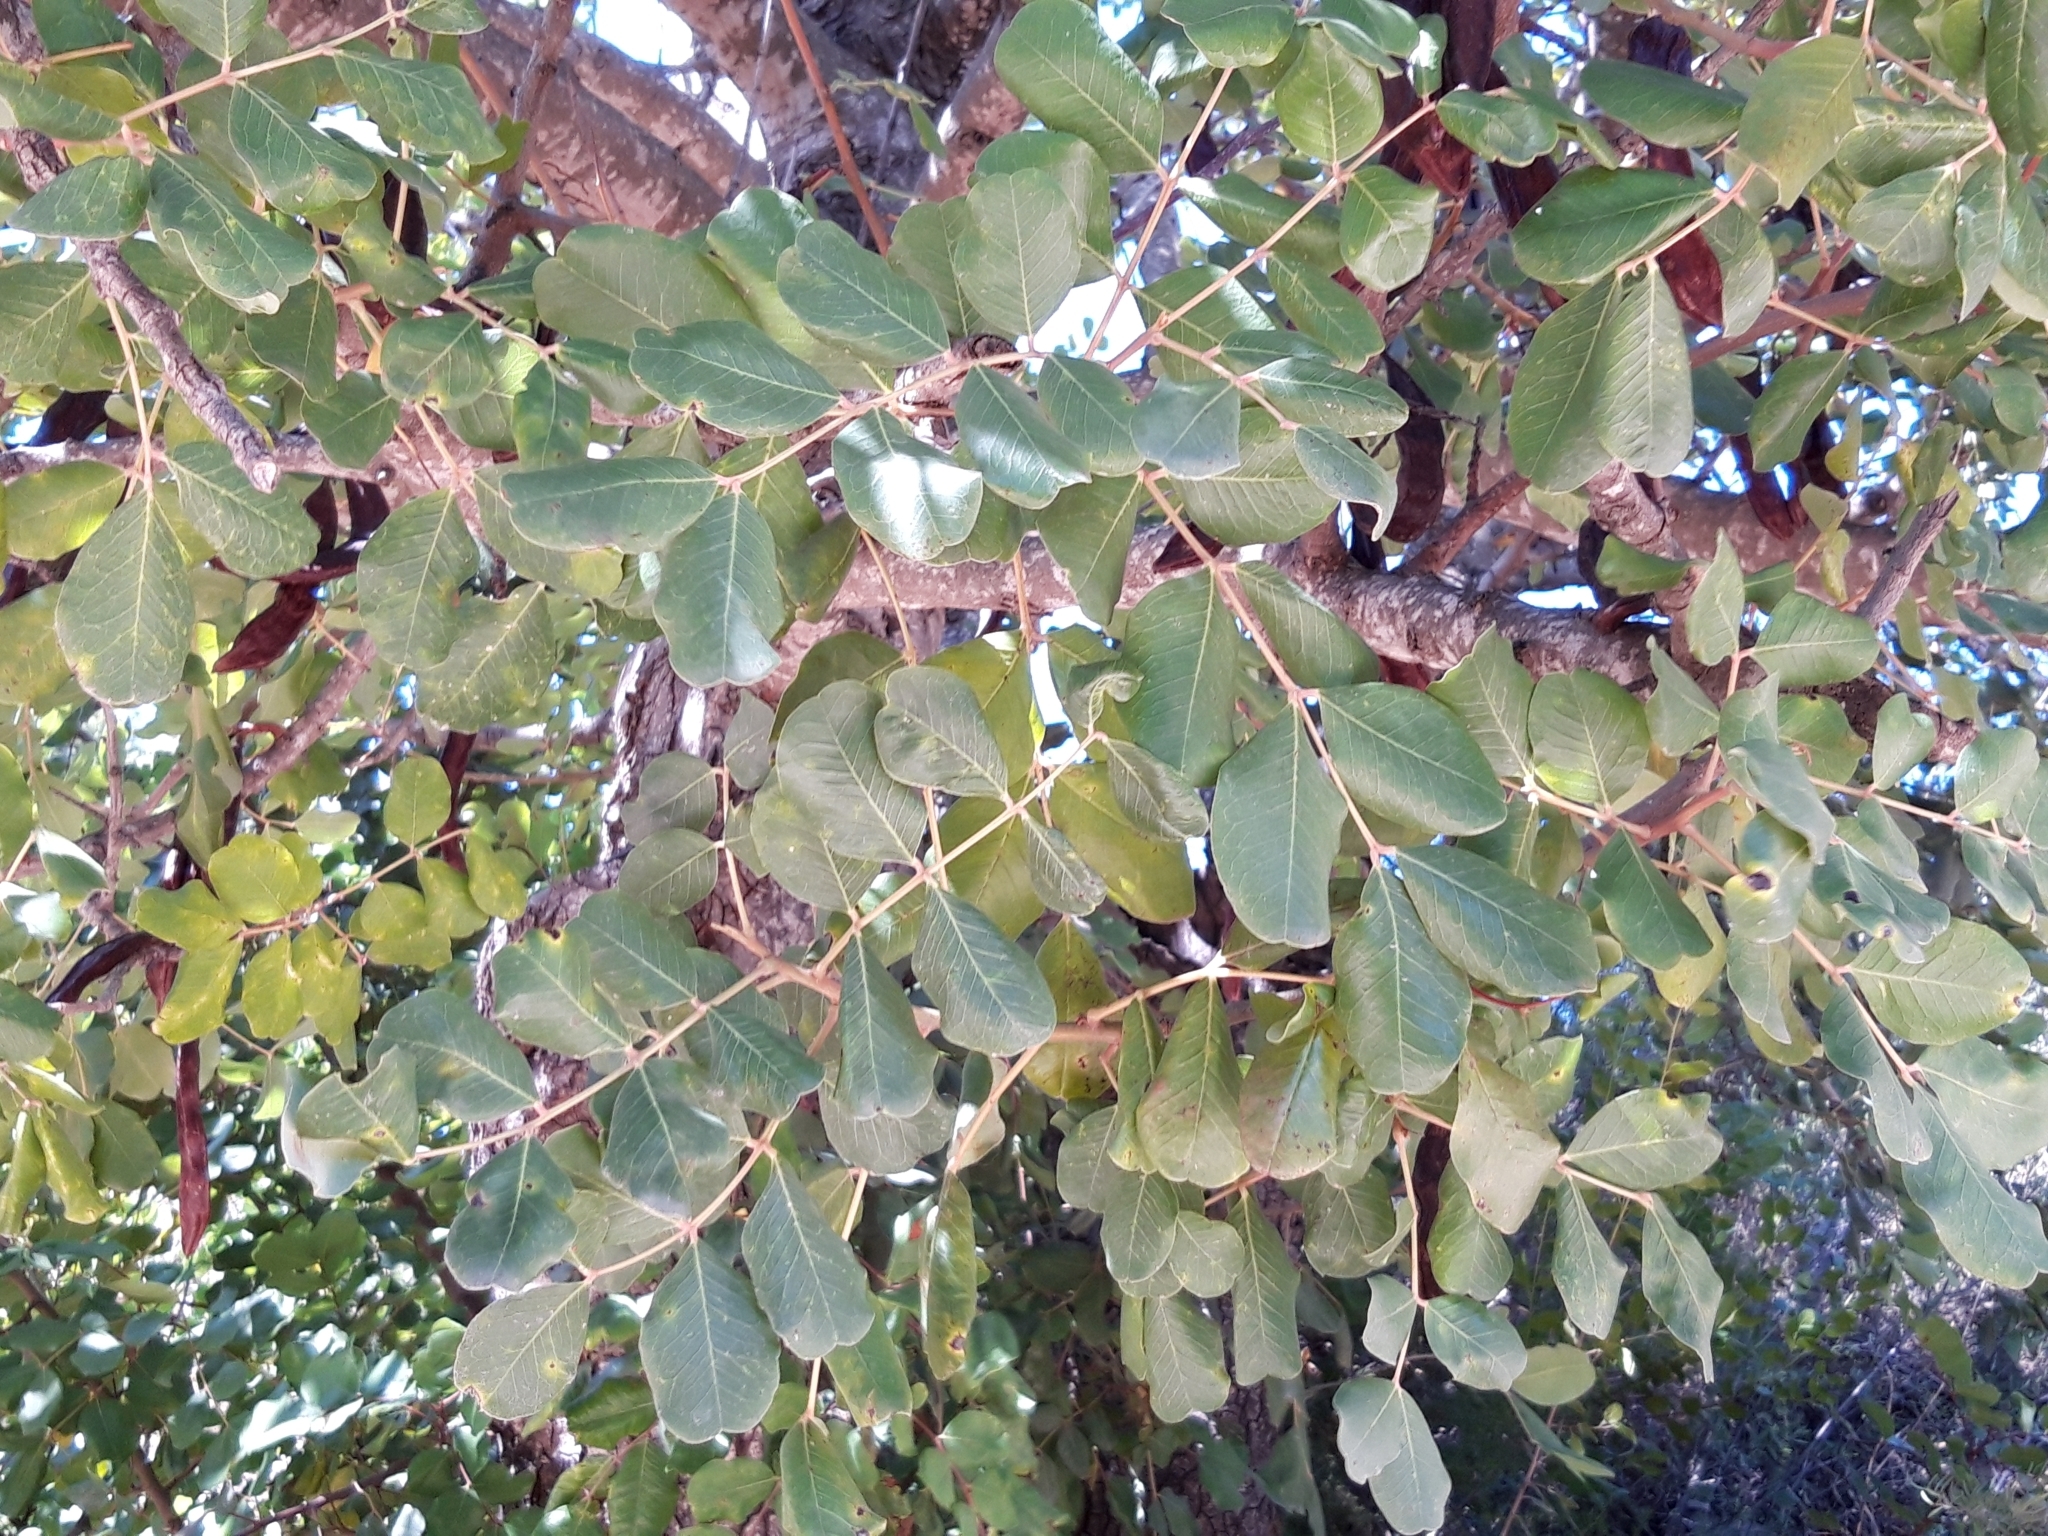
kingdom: Plantae
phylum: Tracheophyta
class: Magnoliopsida
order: Fabales
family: Fabaceae
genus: Ceratonia
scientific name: Ceratonia siliqua
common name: Carob
